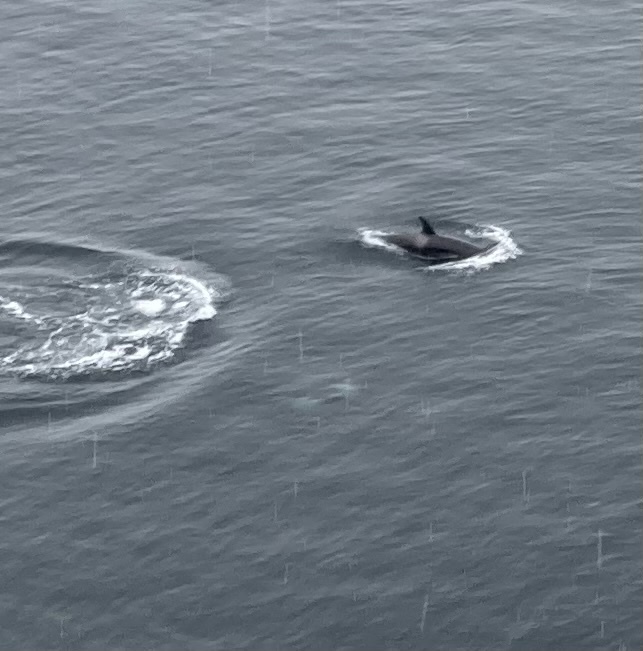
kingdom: Animalia
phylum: Chordata
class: Mammalia
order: Cetacea
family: Delphinidae
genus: Orcinus
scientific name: Orcinus orca
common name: Killer whale
